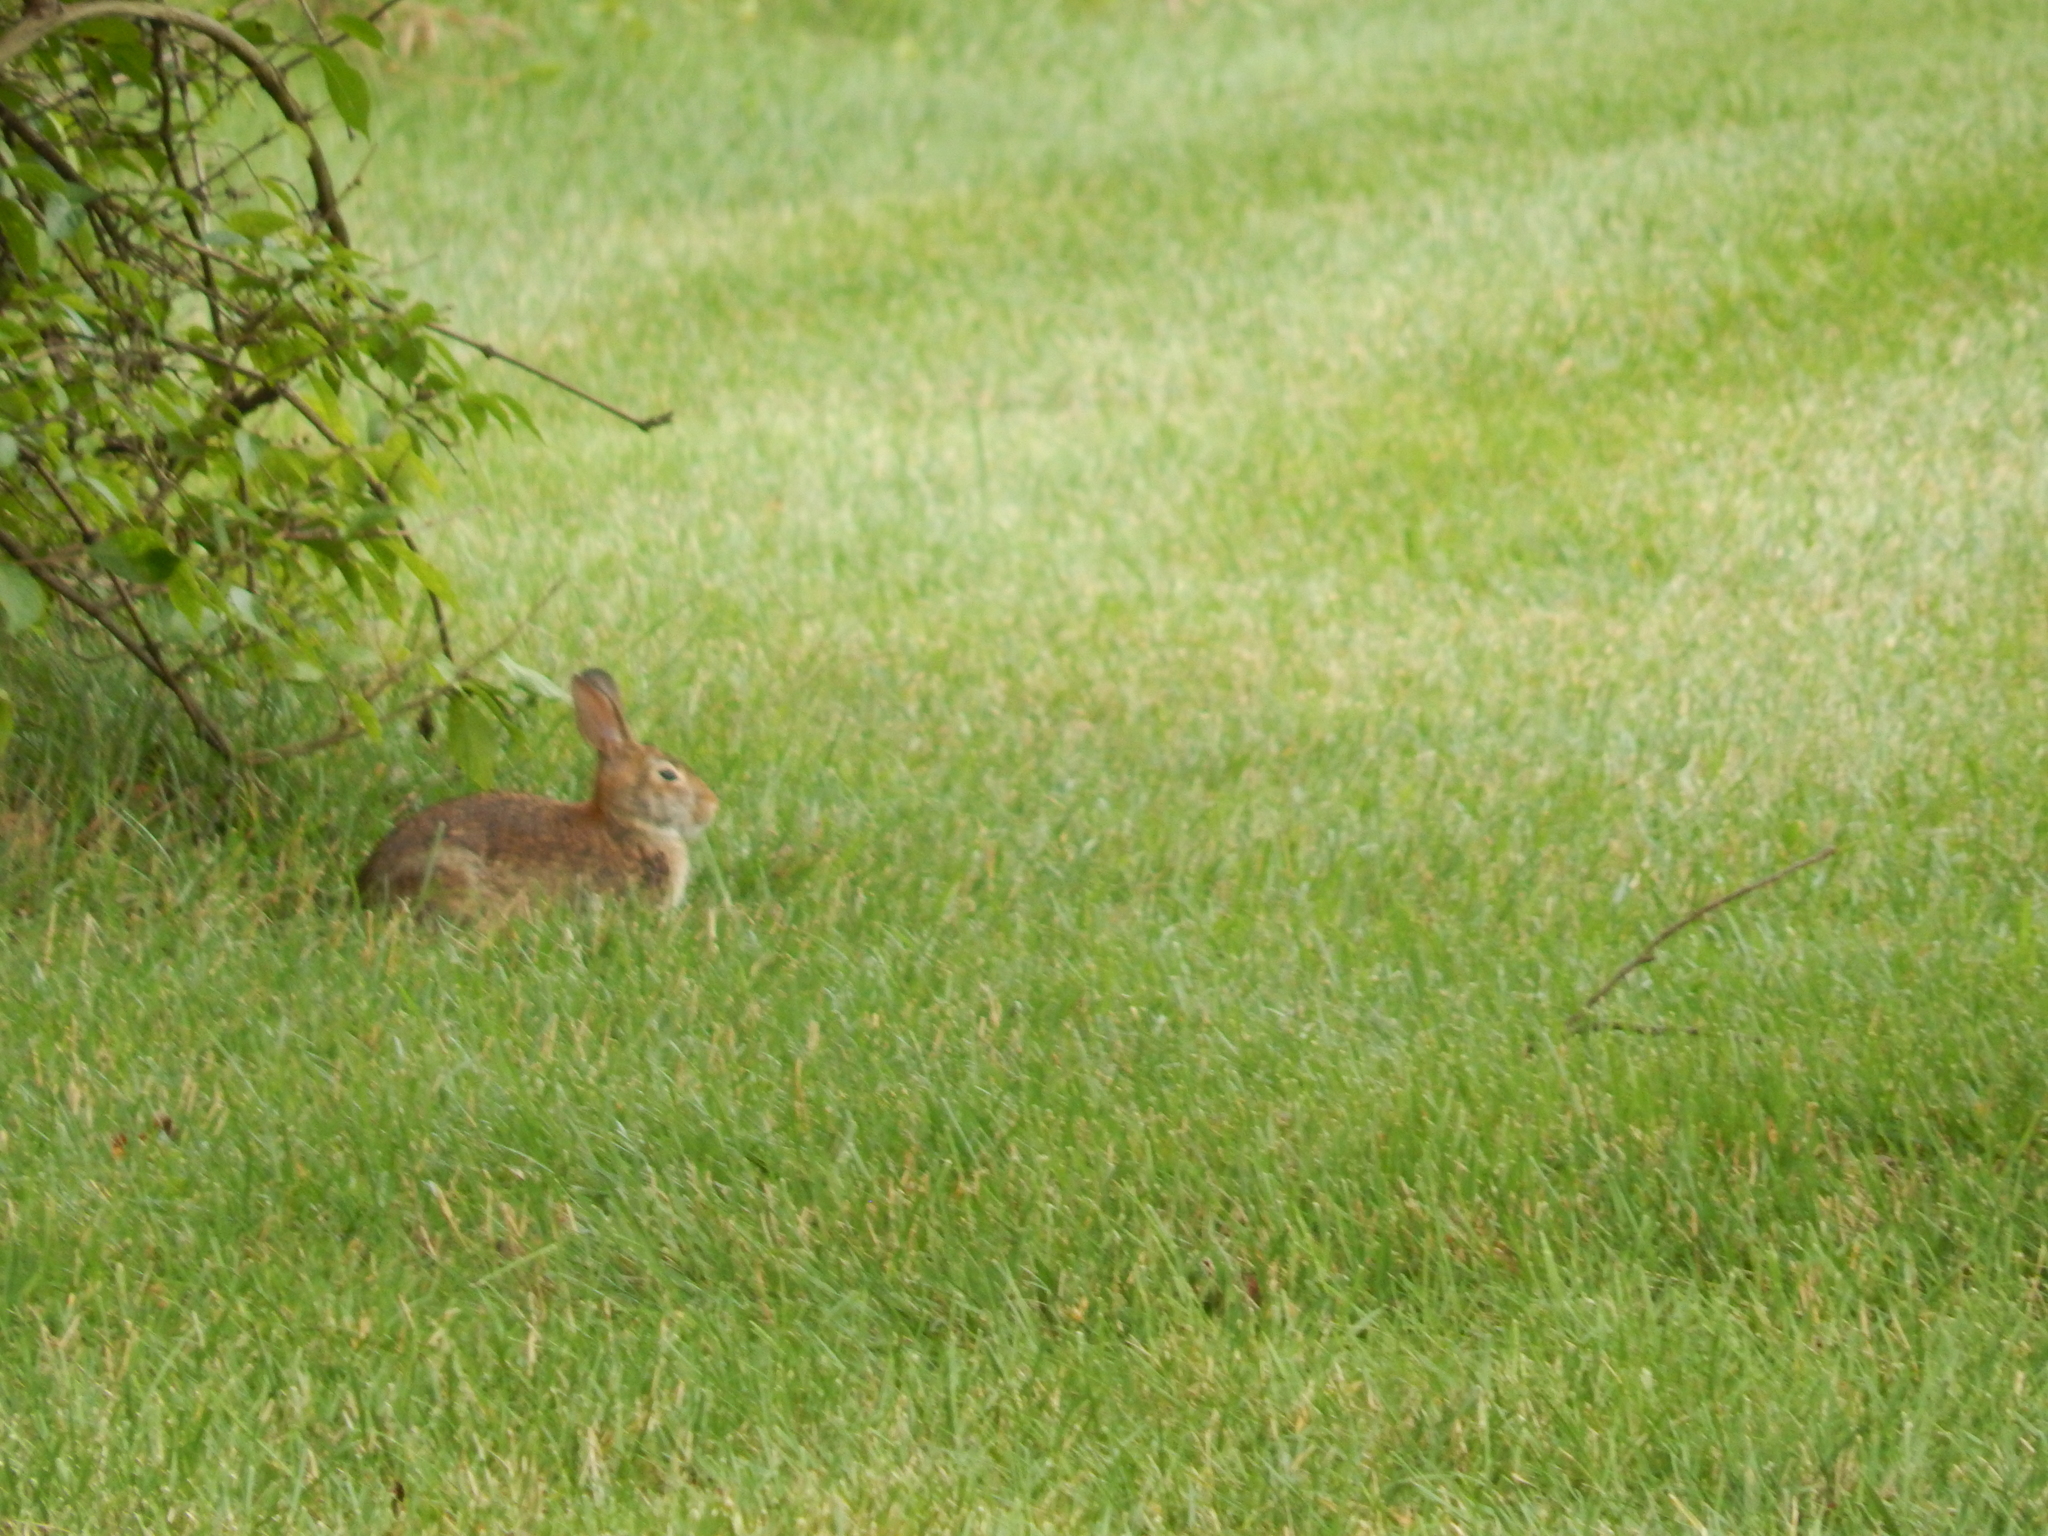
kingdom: Animalia
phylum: Chordata
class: Mammalia
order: Lagomorpha
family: Leporidae
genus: Sylvilagus
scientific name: Sylvilagus floridanus
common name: Eastern cottontail
